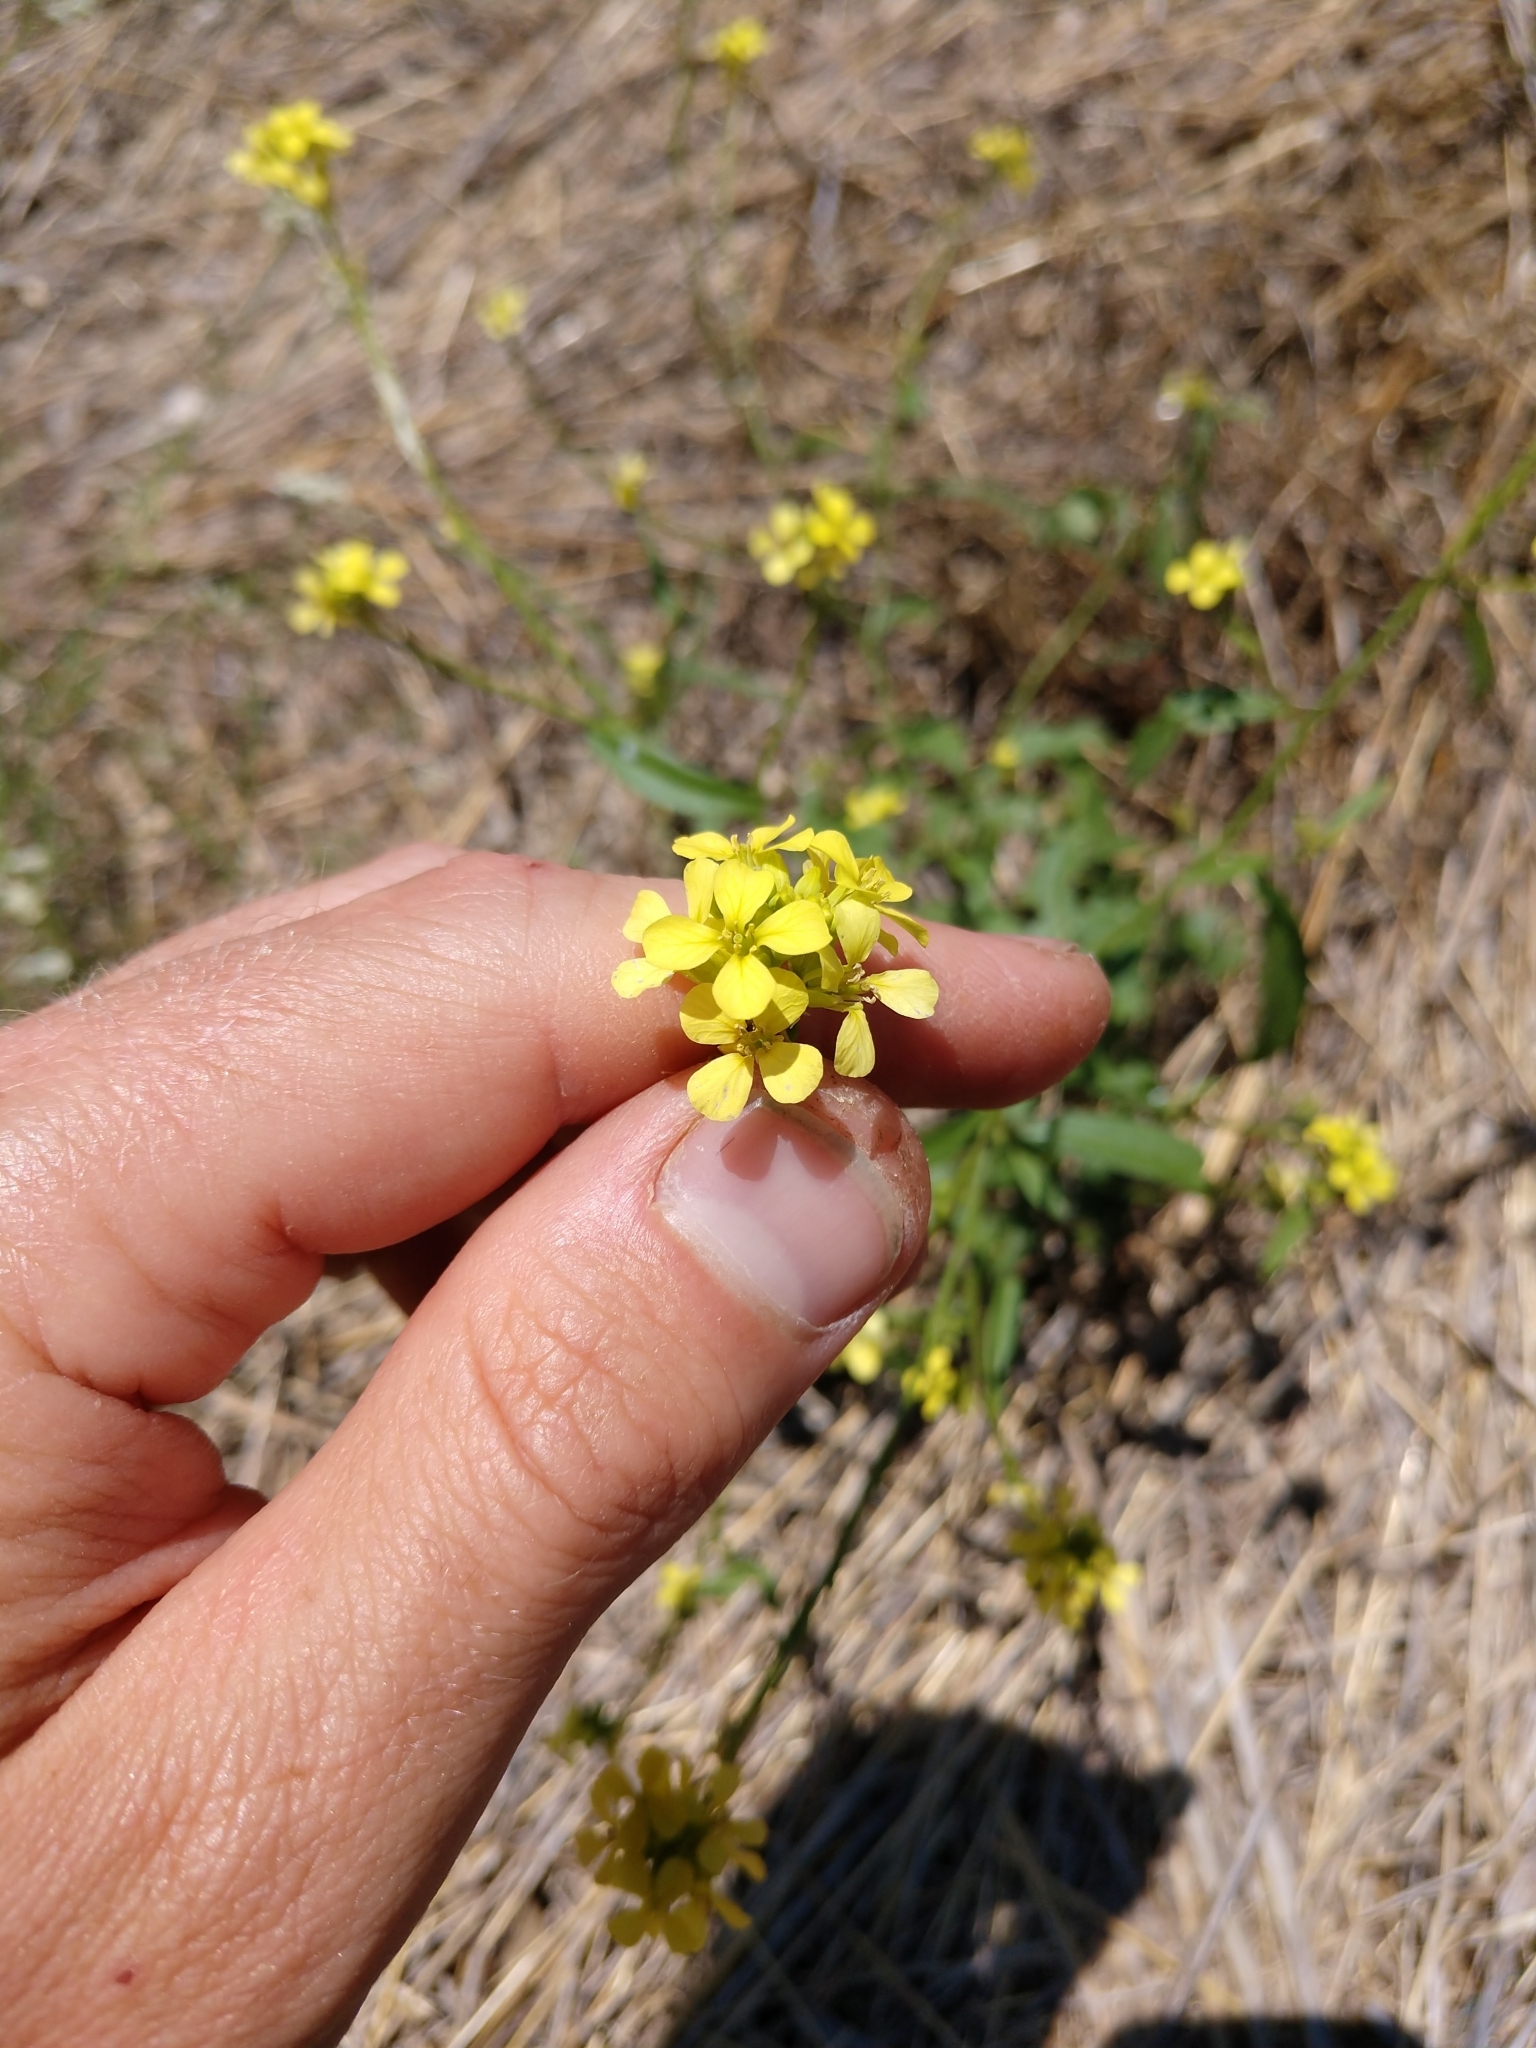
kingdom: Plantae
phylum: Tracheophyta
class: Magnoliopsida
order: Brassicales
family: Brassicaceae
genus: Rapistrum
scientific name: Rapistrum rugosum
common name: Annual bastardcabbage
